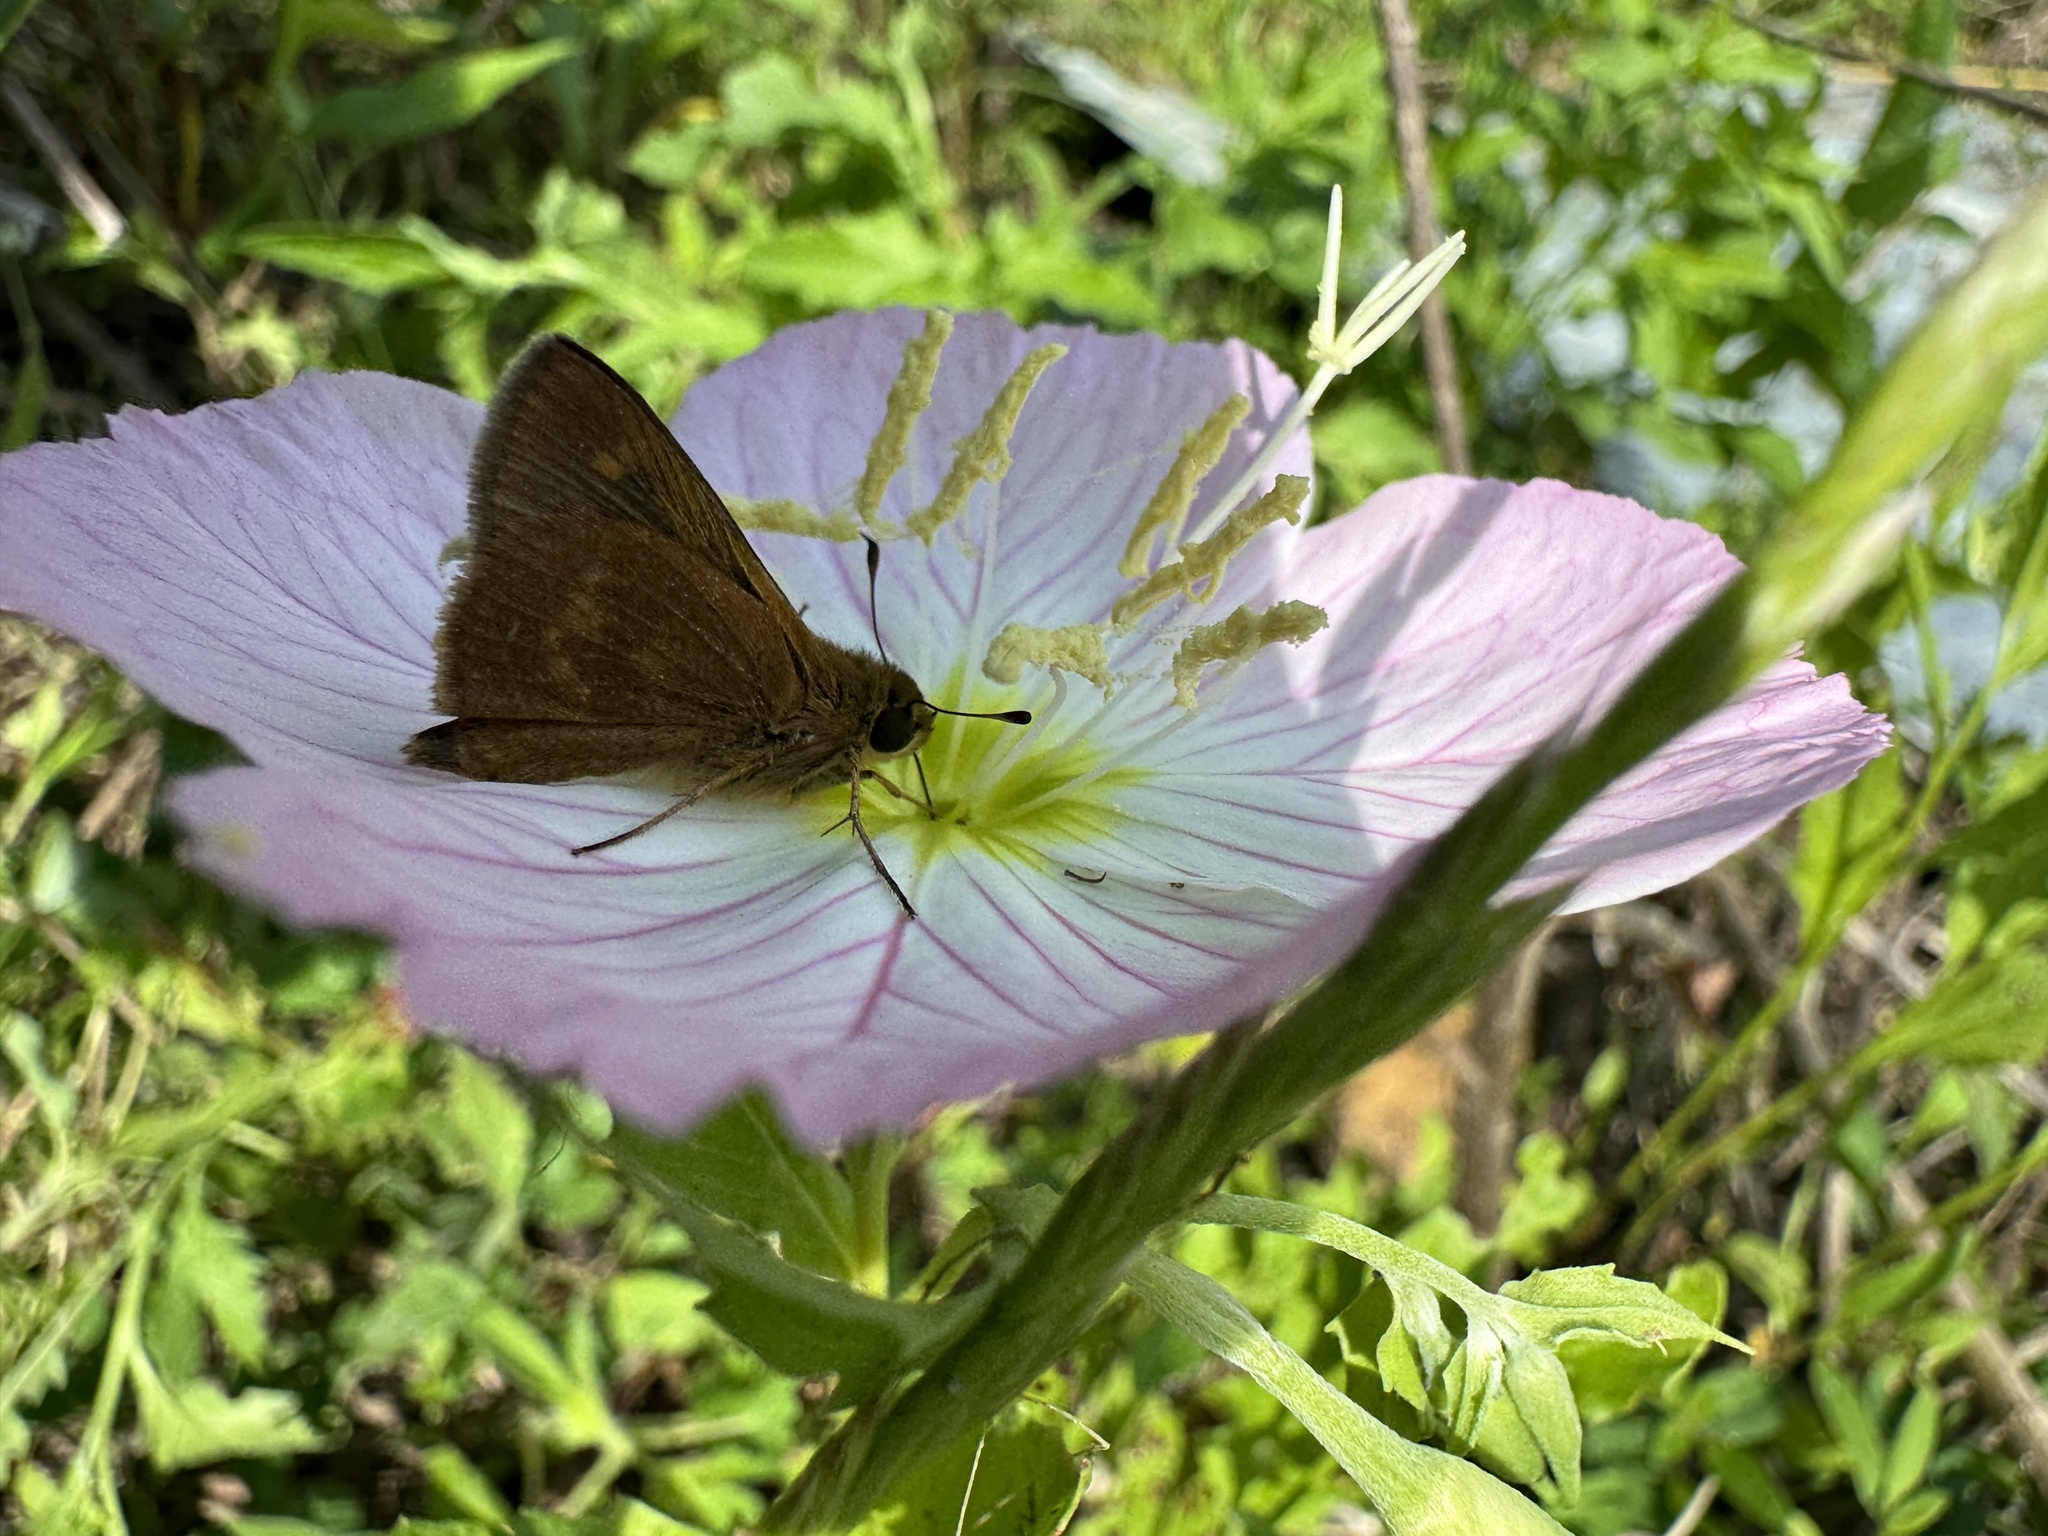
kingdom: Animalia
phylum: Arthropoda
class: Insecta
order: Lepidoptera
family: Hesperiidae
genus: Polites
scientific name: Polites otho
